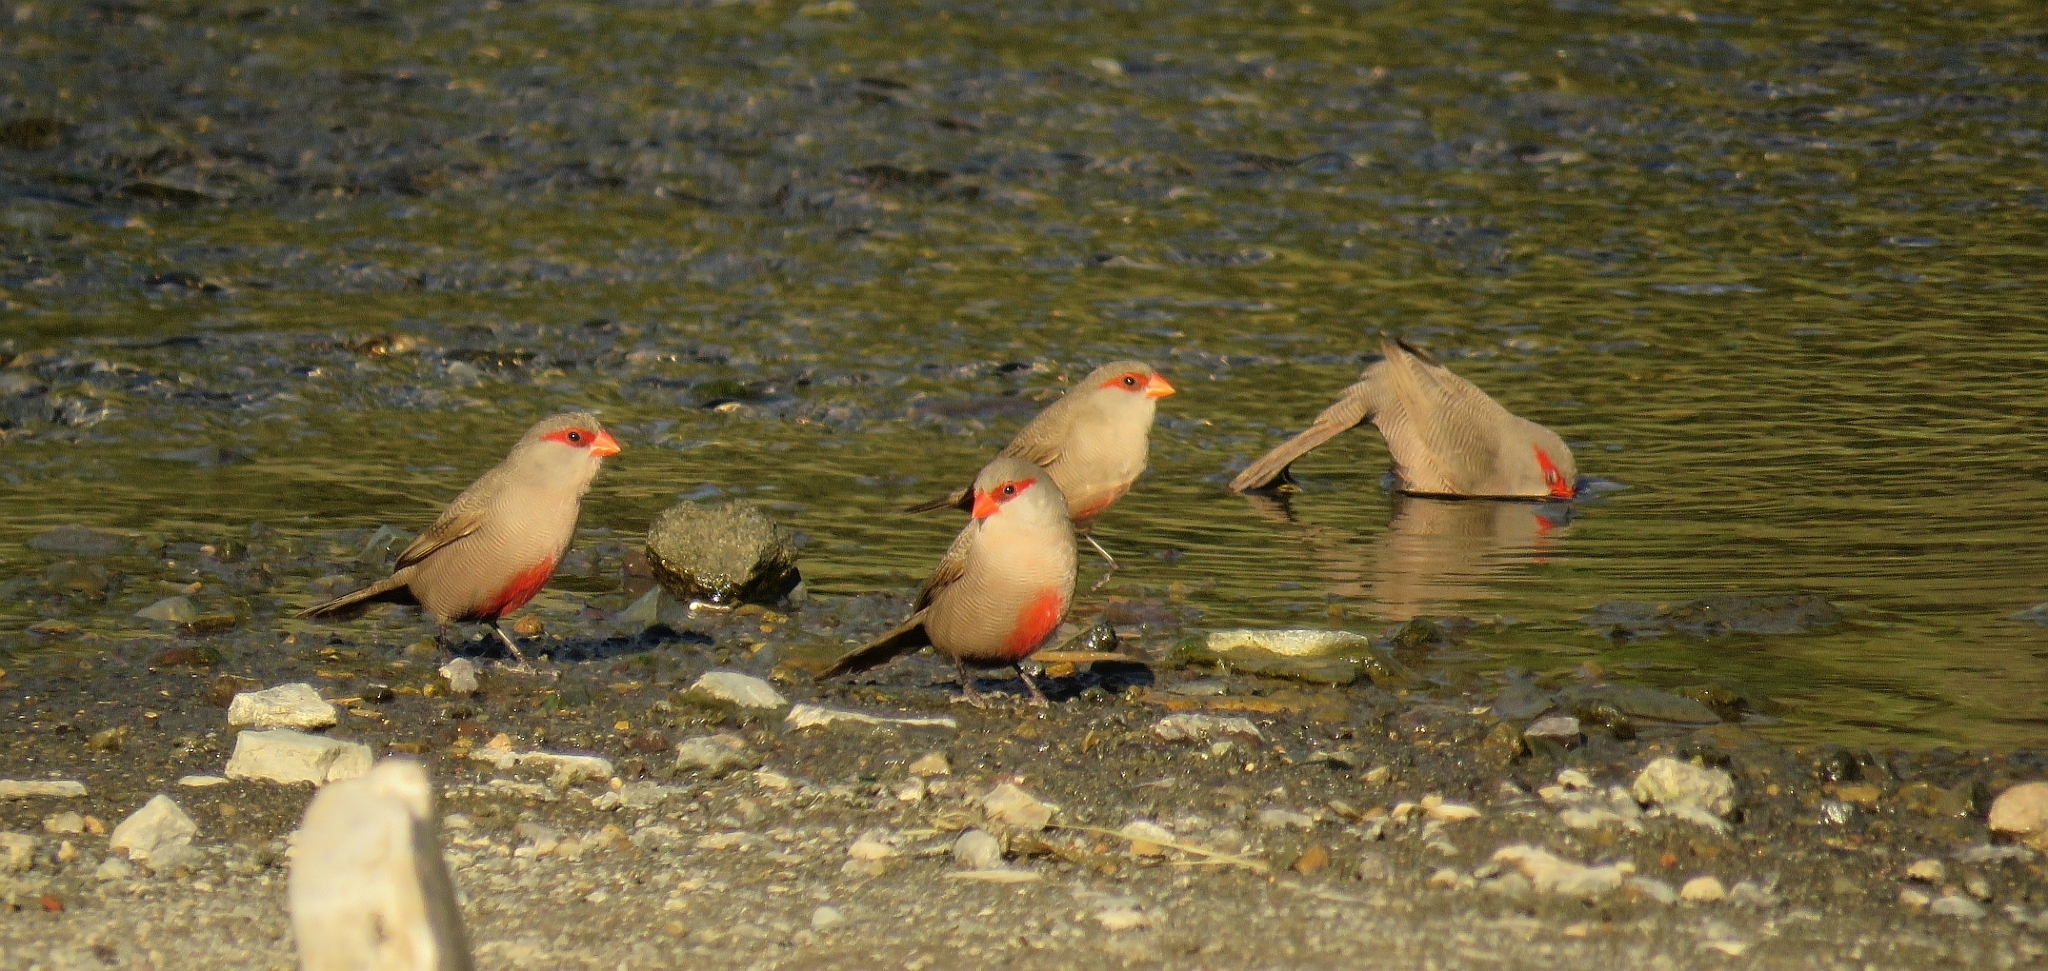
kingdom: Animalia
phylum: Chordata
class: Aves
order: Passeriformes
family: Estrildidae
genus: Estrilda
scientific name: Estrilda astrild
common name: Common waxbill
